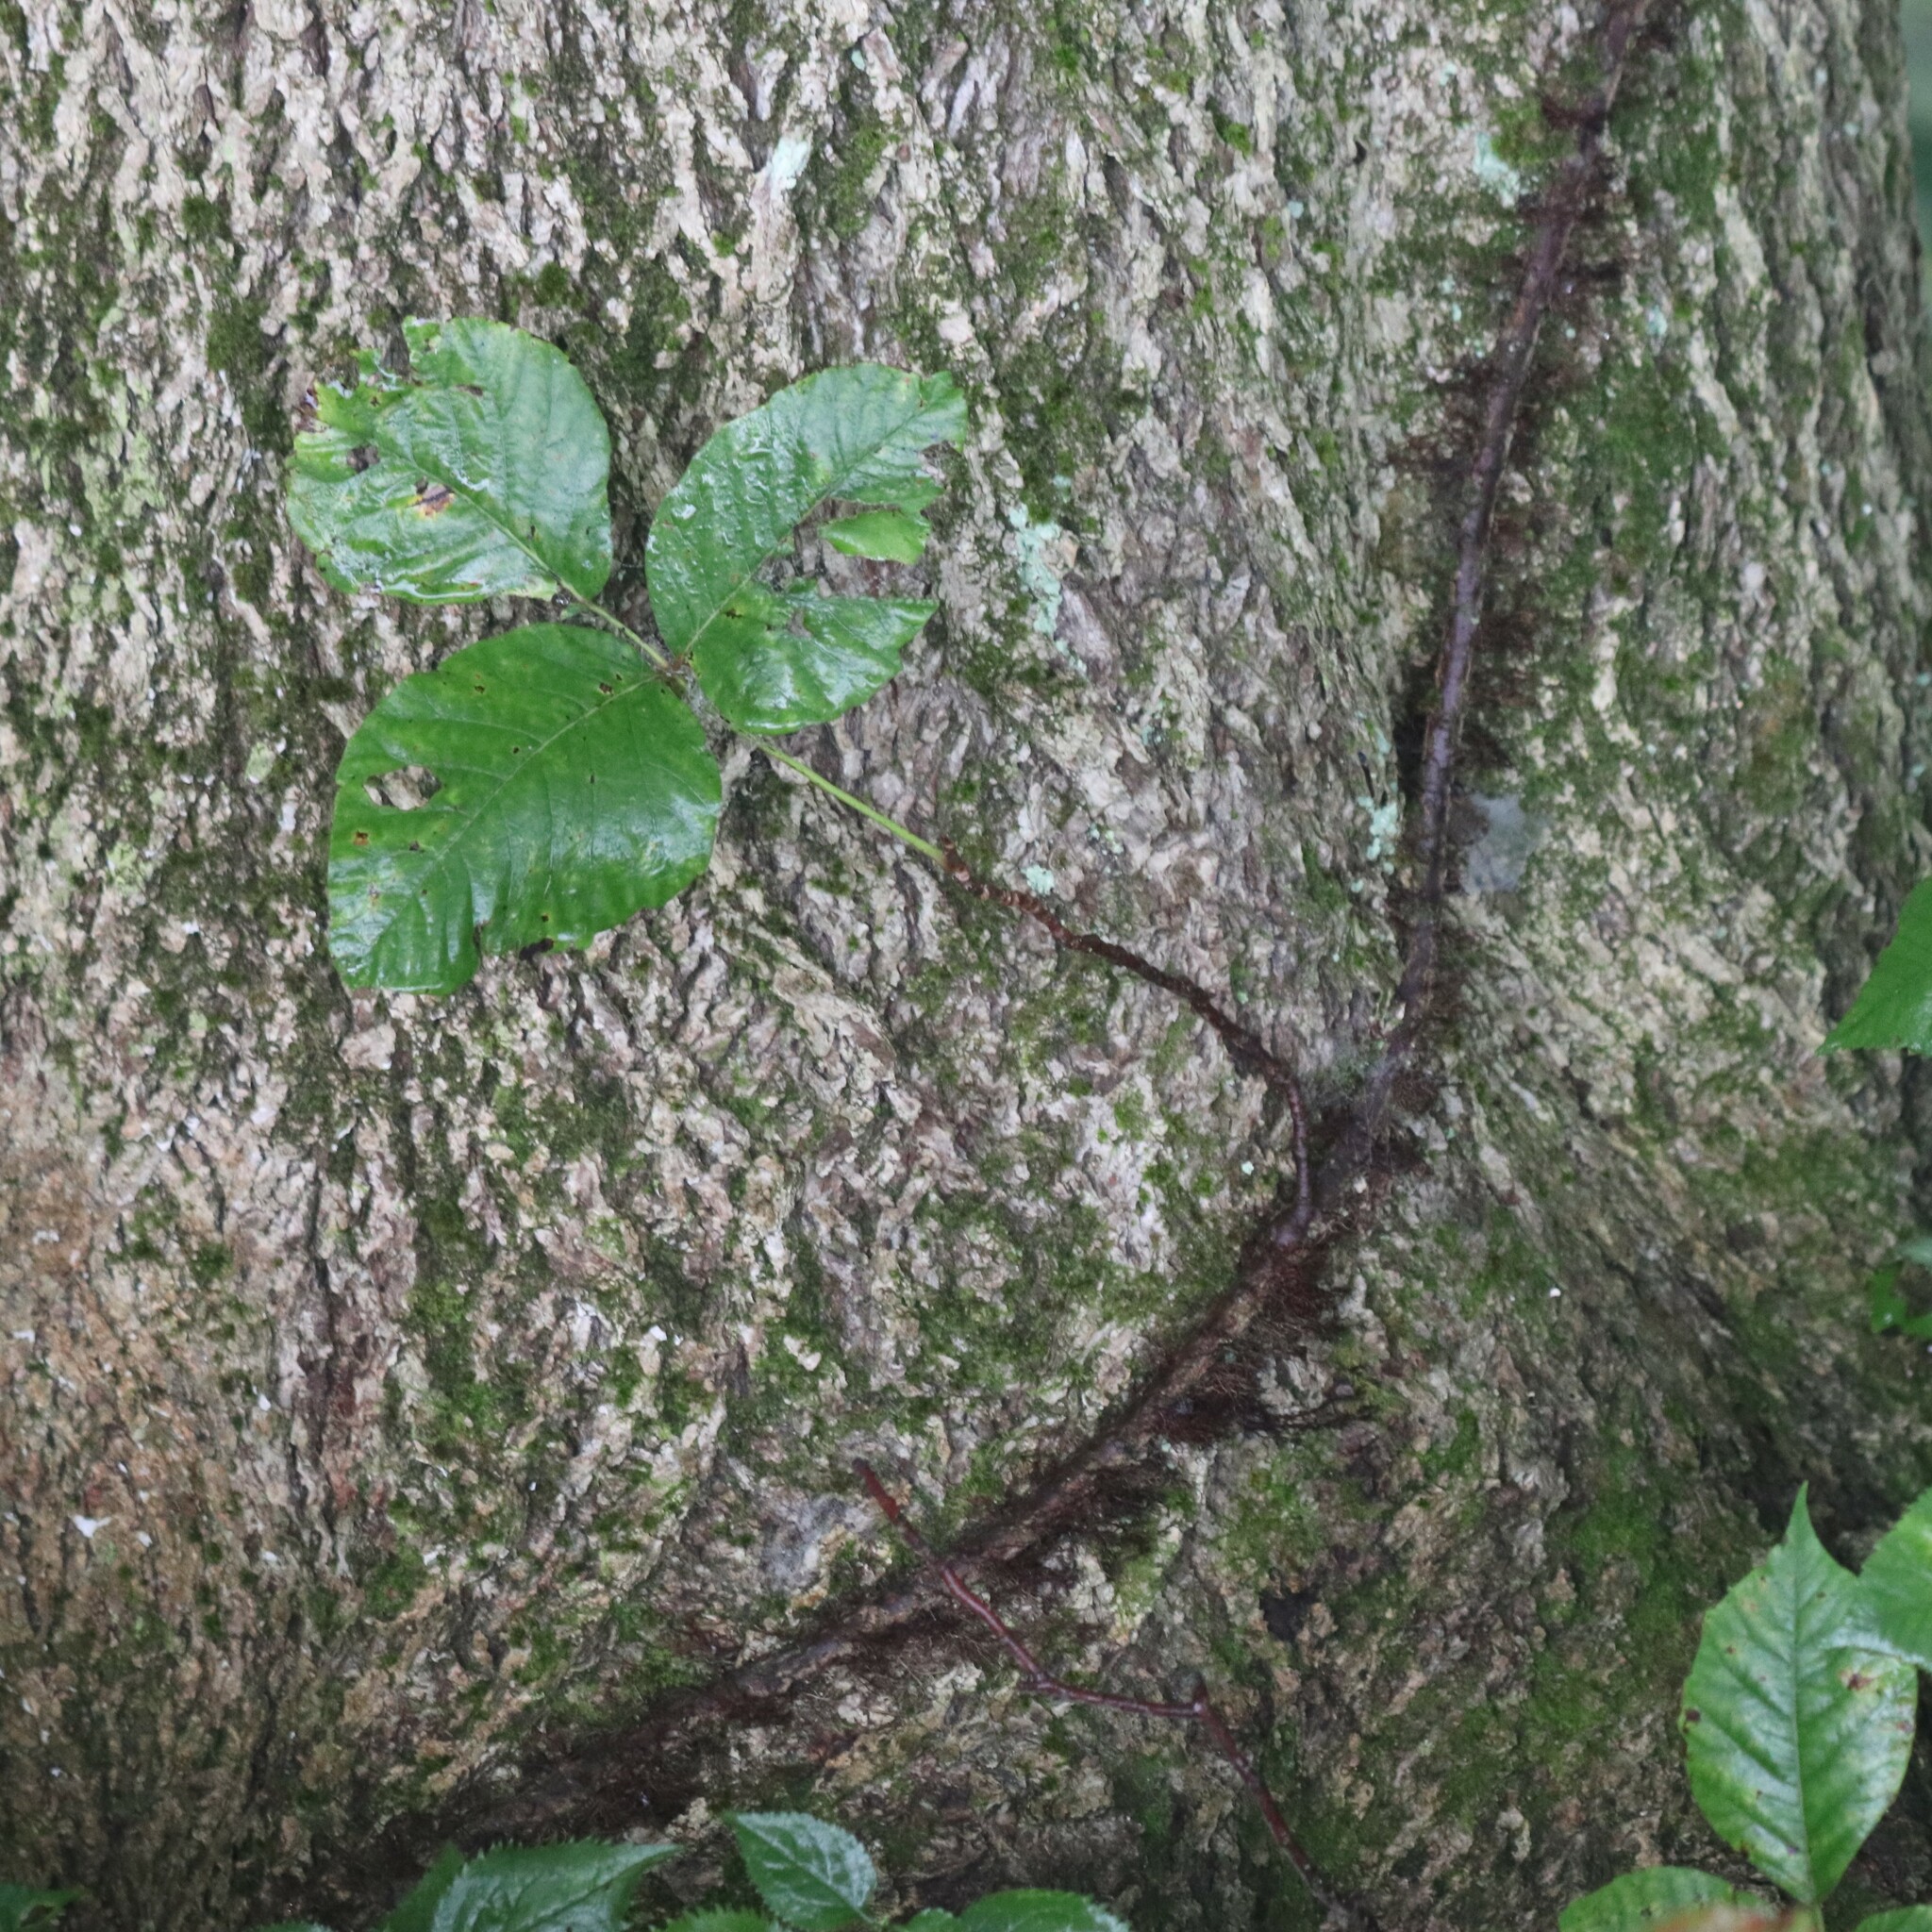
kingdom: Plantae
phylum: Tracheophyta
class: Magnoliopsida
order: Sapindales
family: Anacardiaceae
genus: Toxicodendron
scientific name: Toxicodendron radicans
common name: Poison ivy
